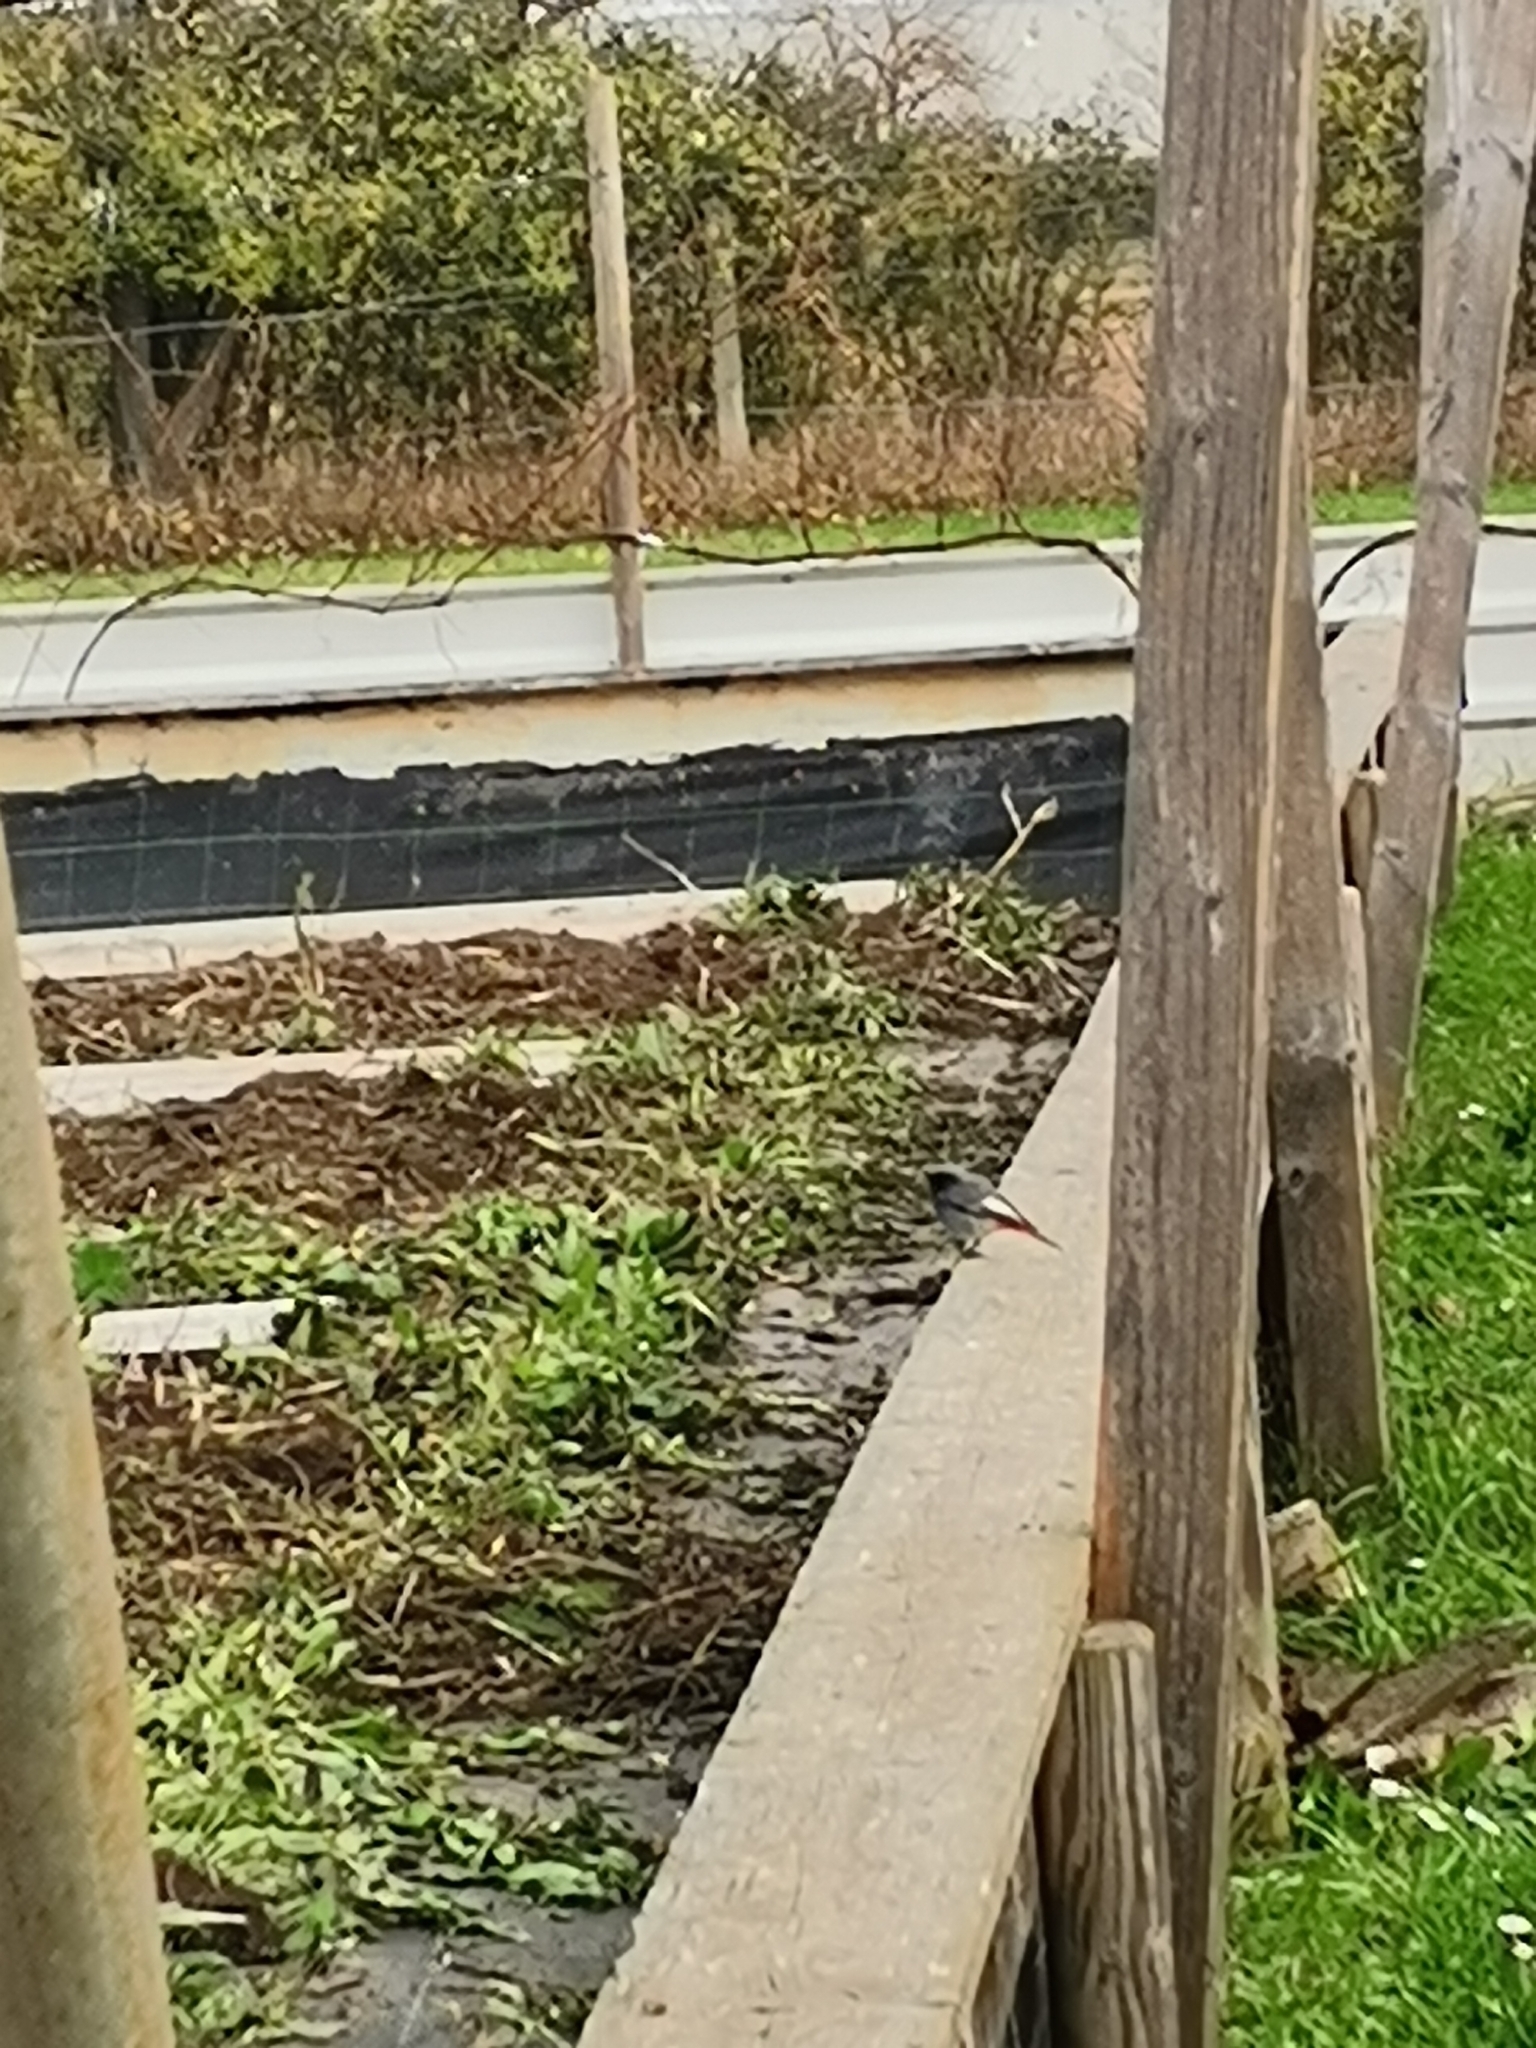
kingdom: Animalia
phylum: Chordata
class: Aves
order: Passeriformes
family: Muscicapidae
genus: Phoenicurus
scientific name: Phoenicurus ochruros
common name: Black redstart
